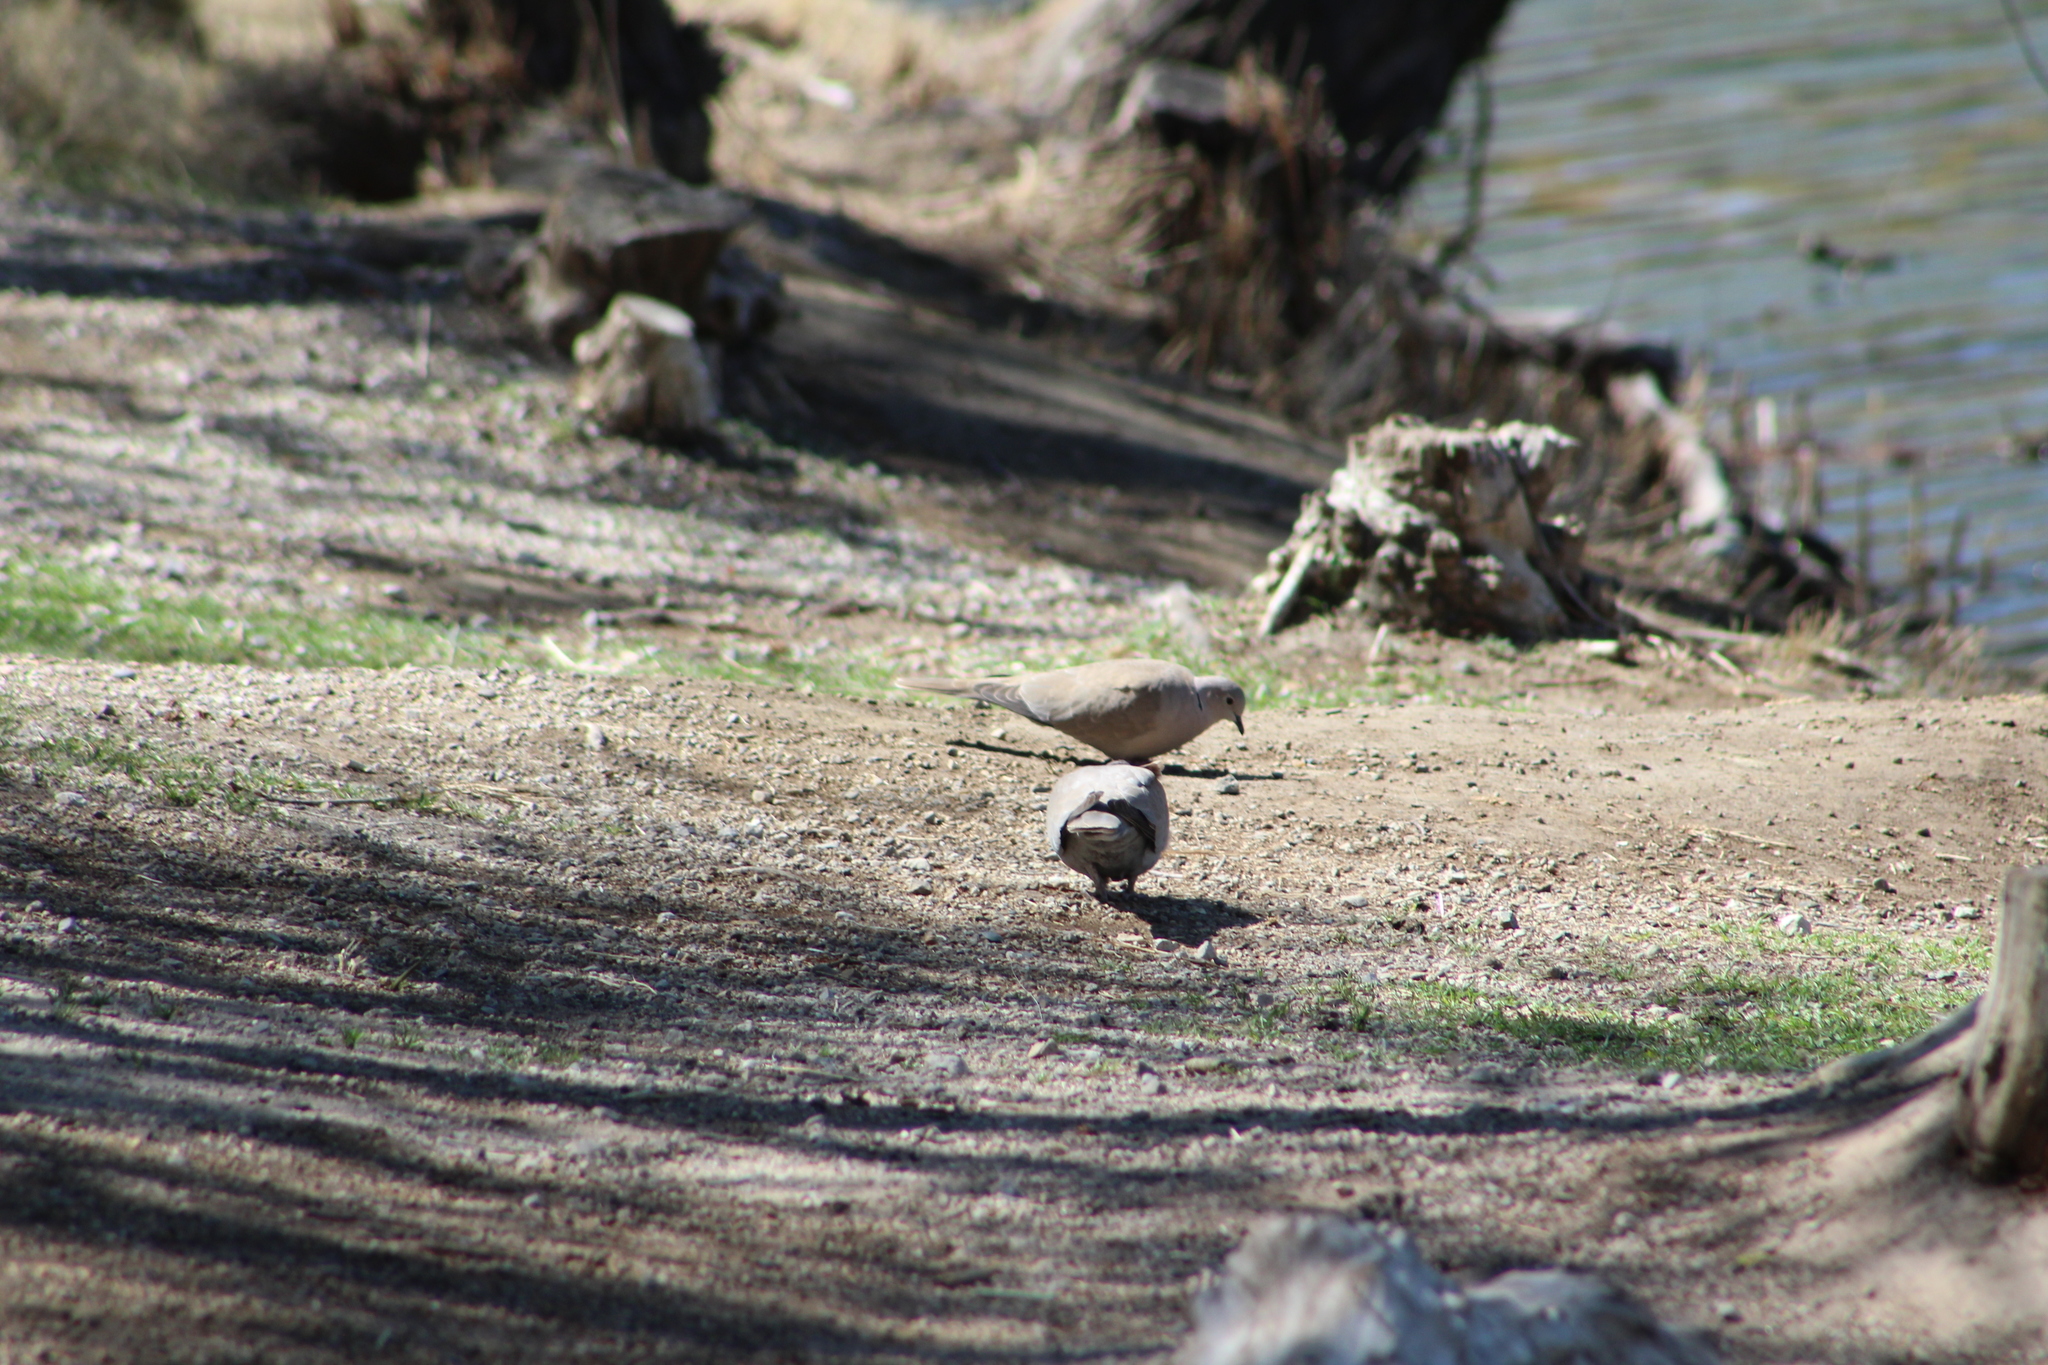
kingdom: Animalia
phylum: Chordata
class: Aves
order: Columbiformes
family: Columbidae
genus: Streptopelia
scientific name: Streptopelia decaocto
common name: Eurasian collared dove
